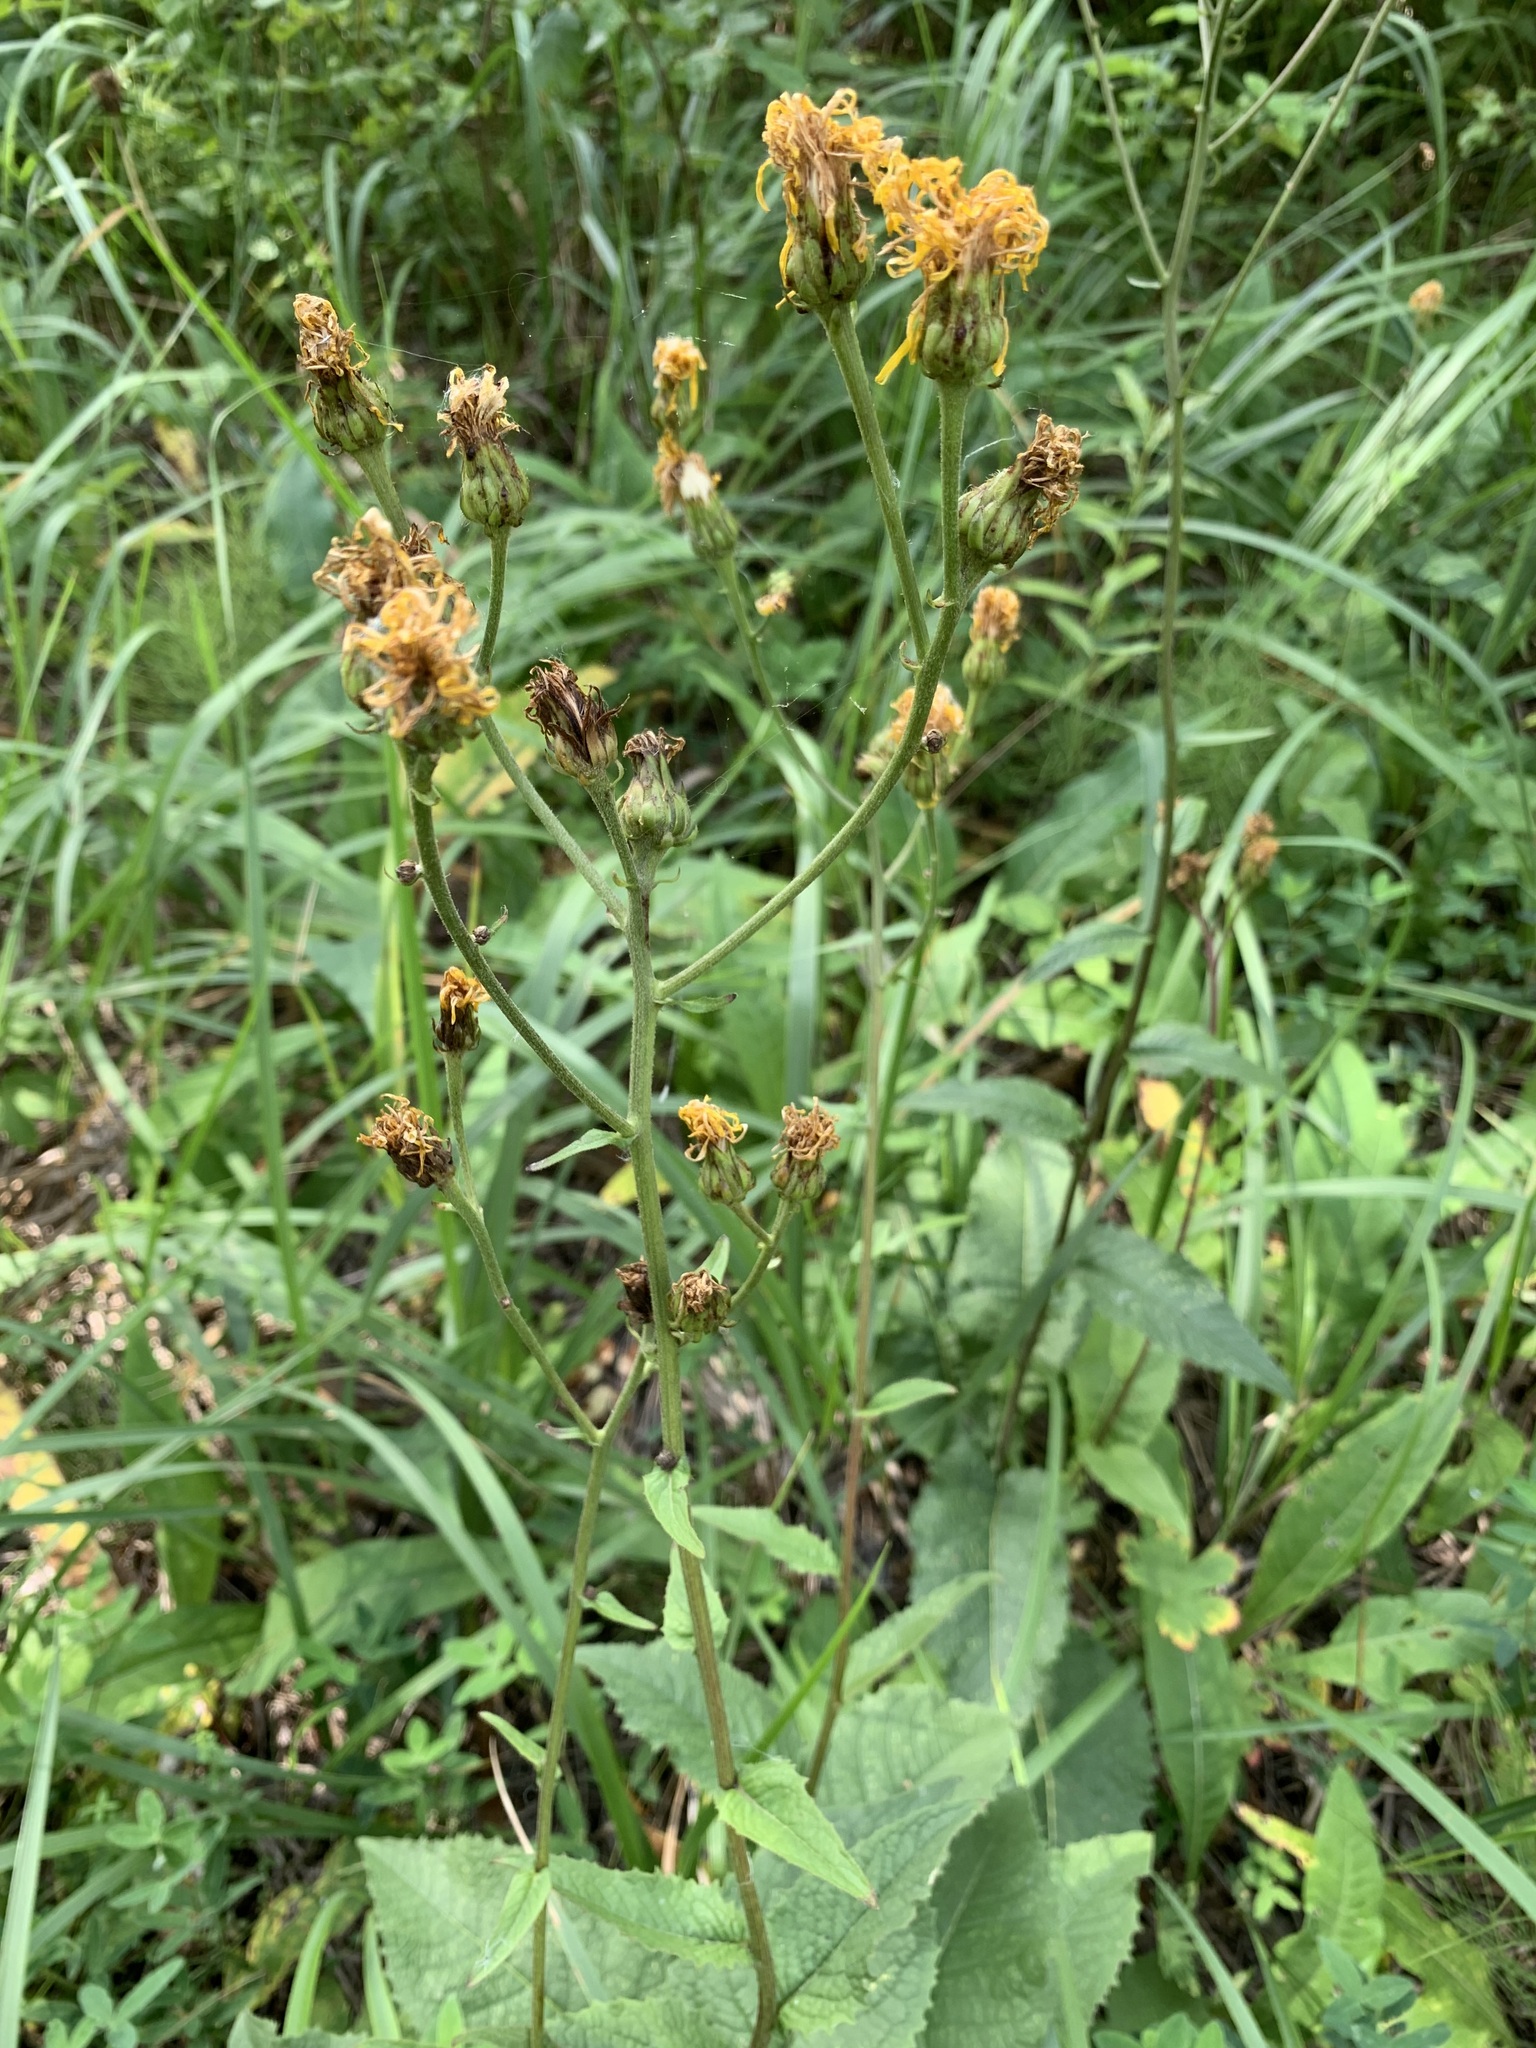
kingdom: Plantae
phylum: Tracheophyta
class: Magnoliopsida
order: Asterales
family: Asteraceae
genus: Crepis
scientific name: Crepis sibirica
